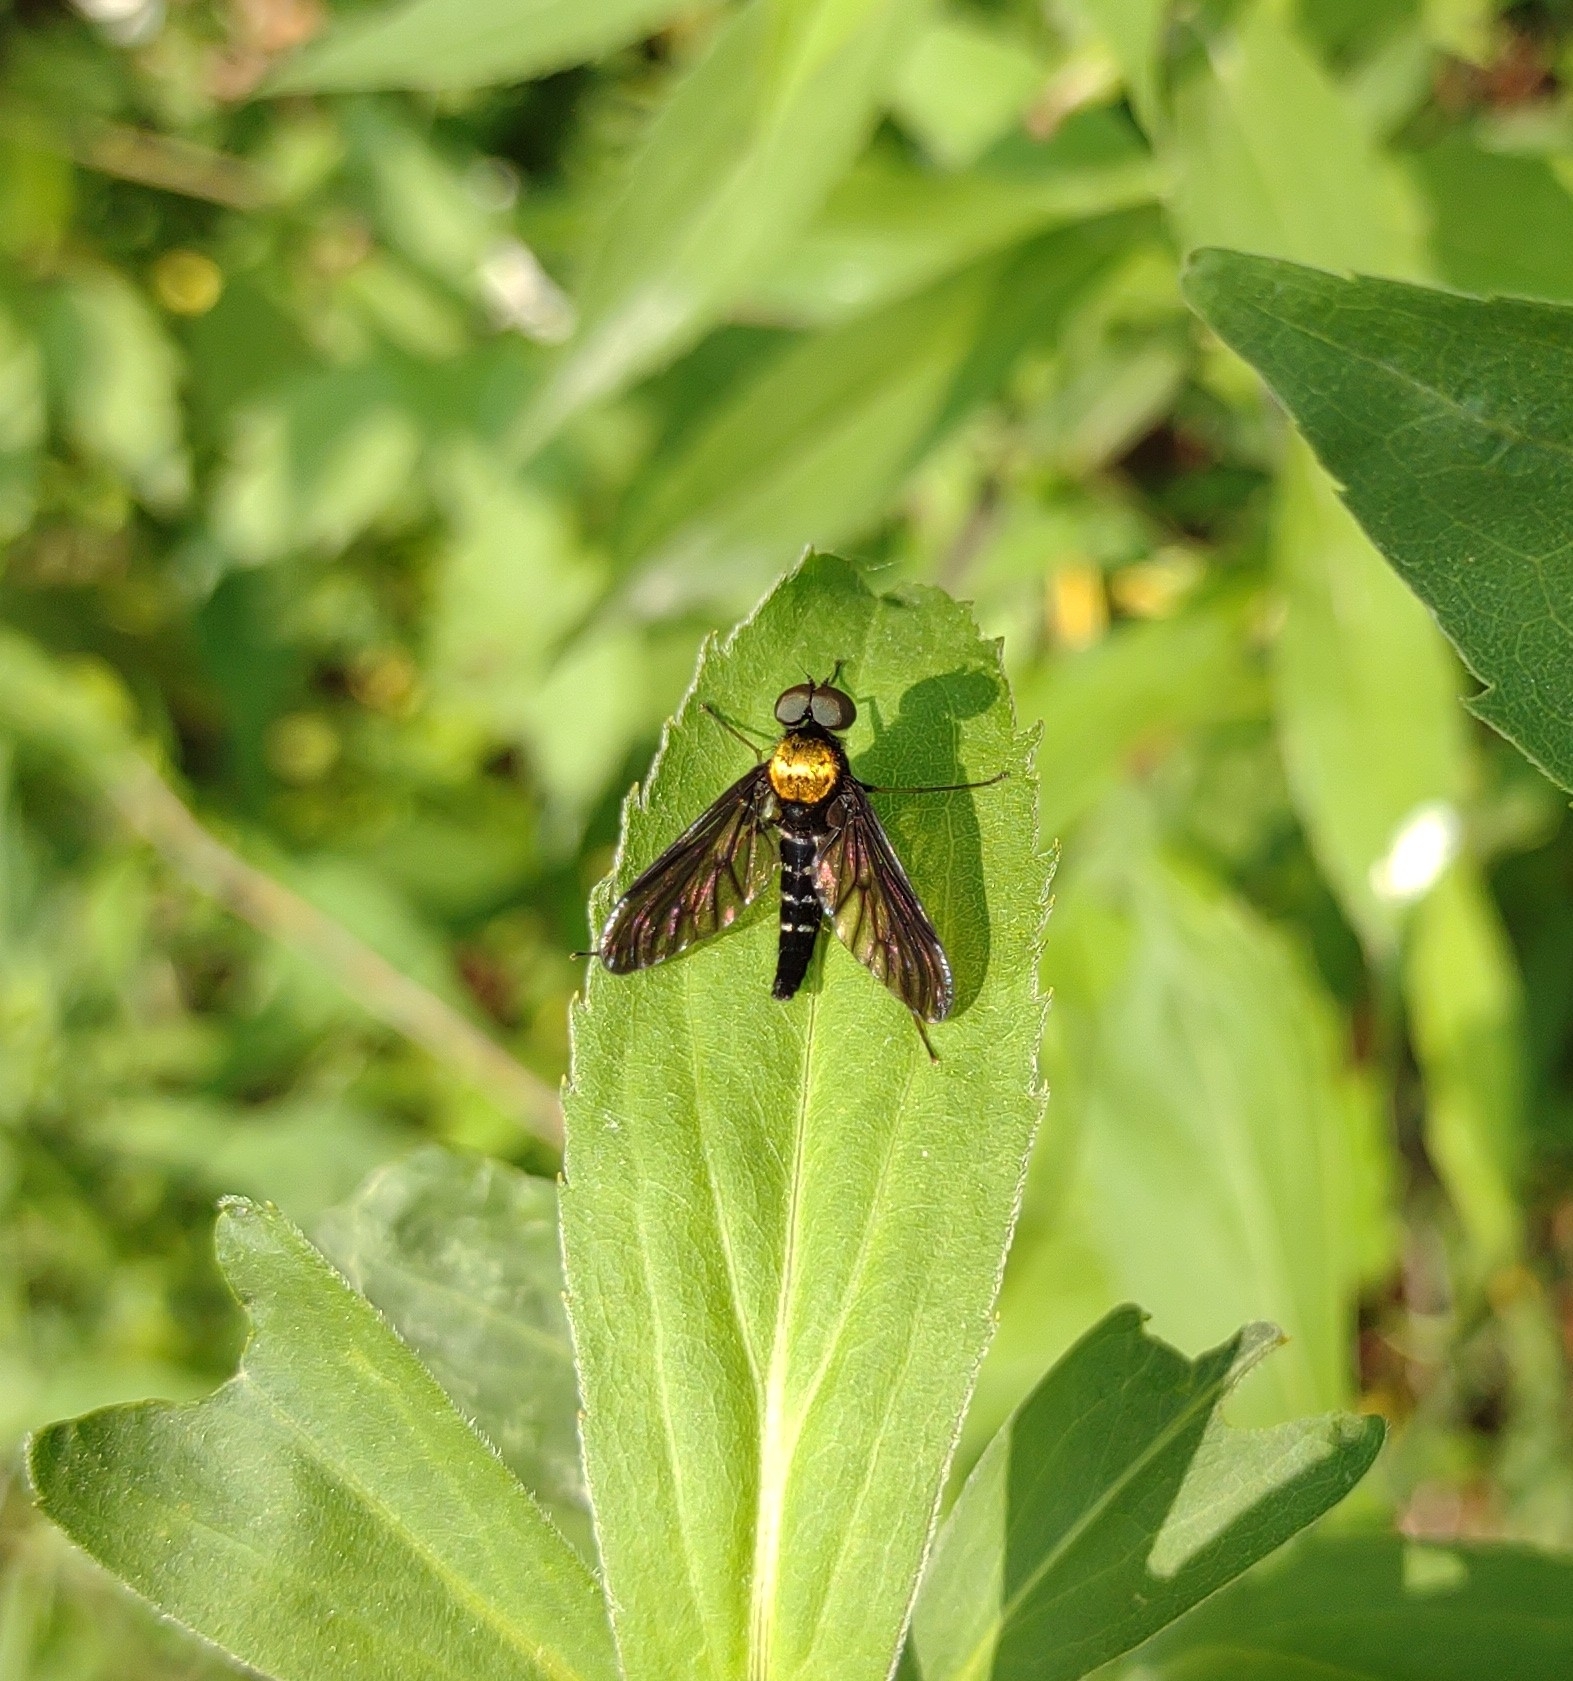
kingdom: Animalia
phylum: Arthropoda
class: Insecta
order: Diptera
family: Rhagionidae
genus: Chrysopilus
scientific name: Chrysopilus thoracicus
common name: Golden-backed snipe fly
